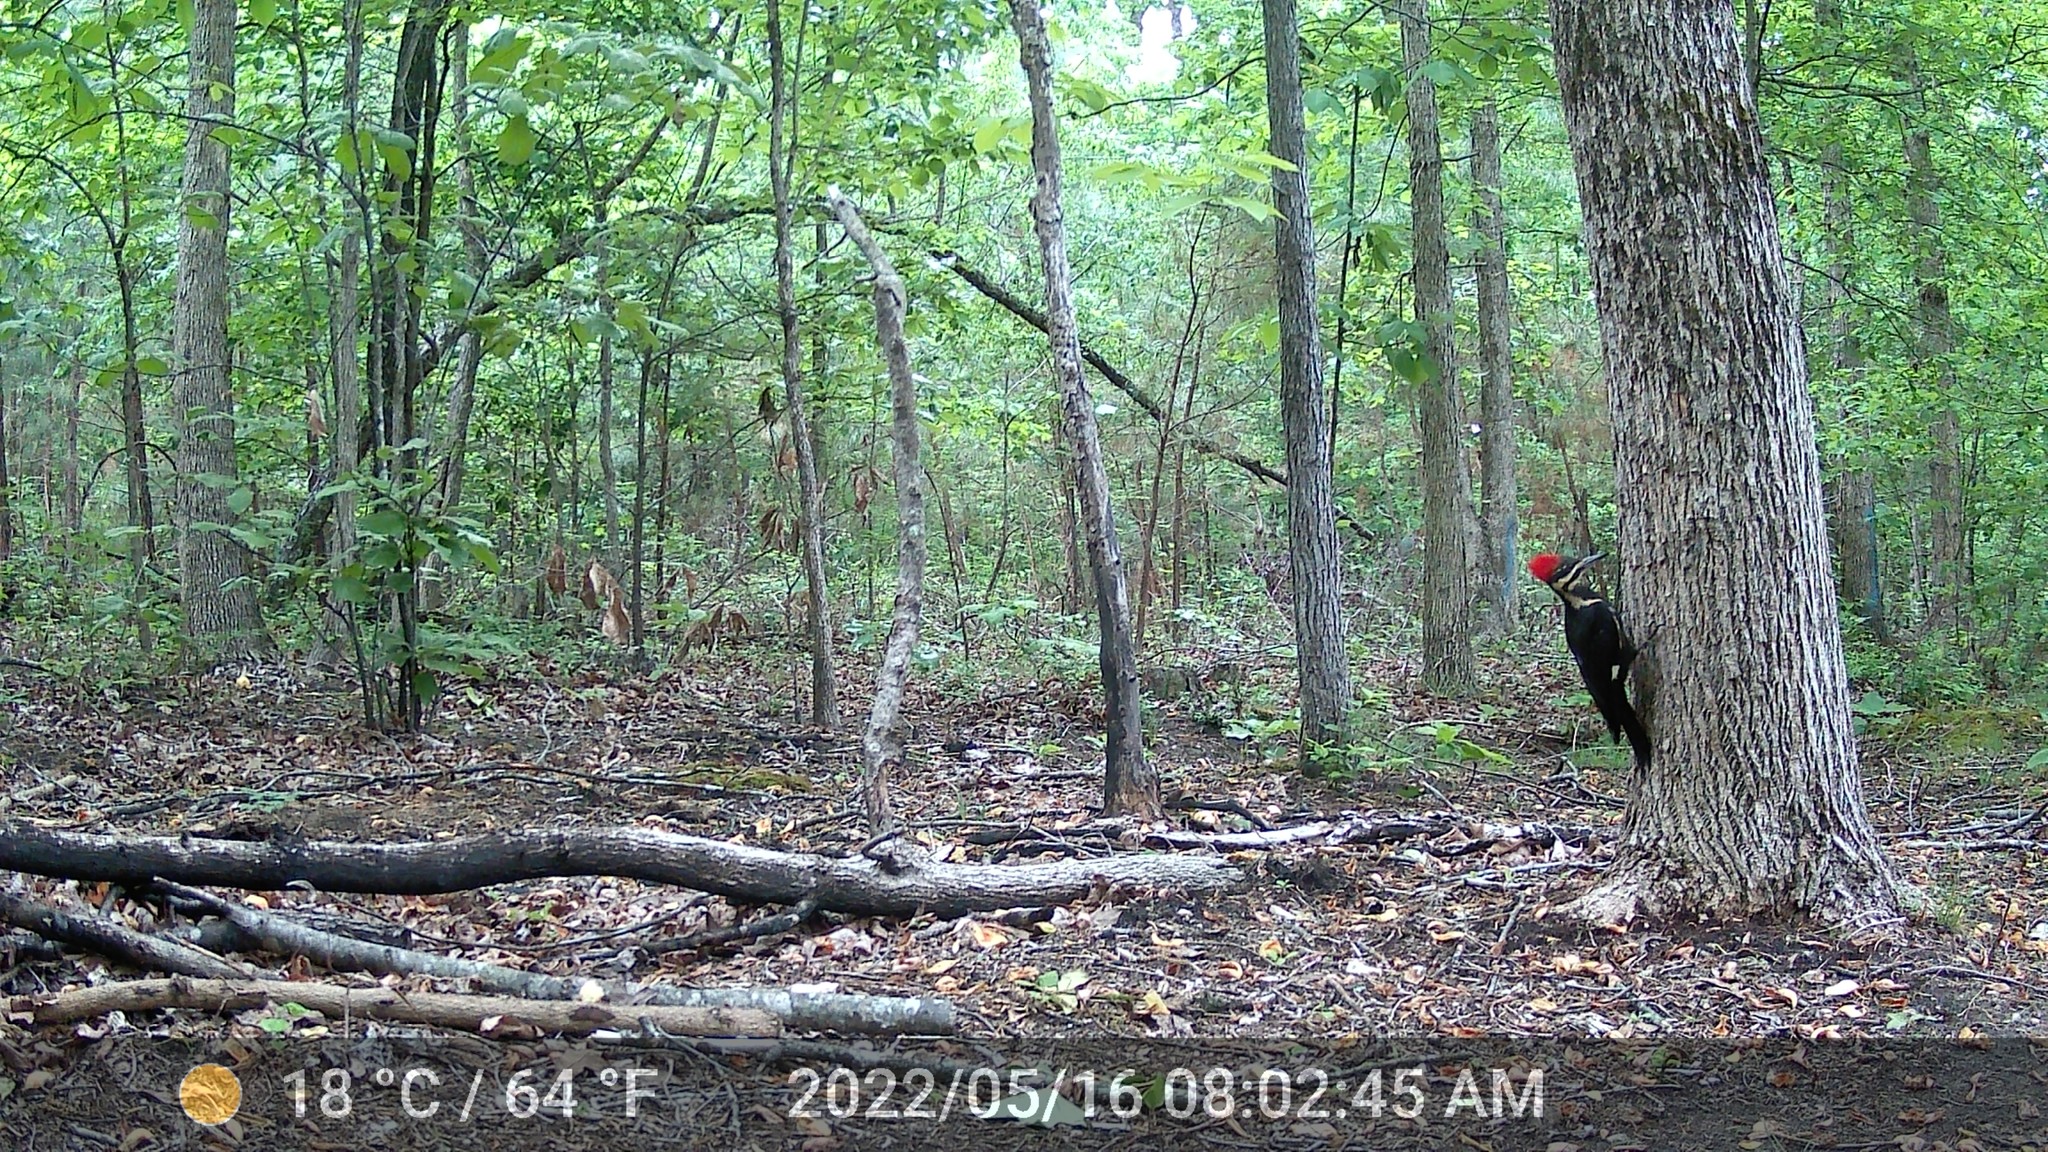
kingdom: Animalia
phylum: Chordata
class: Aves
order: Piciformes
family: Picidae
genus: Dryocopus
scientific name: Dryocopus pileatus
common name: Pileated woodpecker
